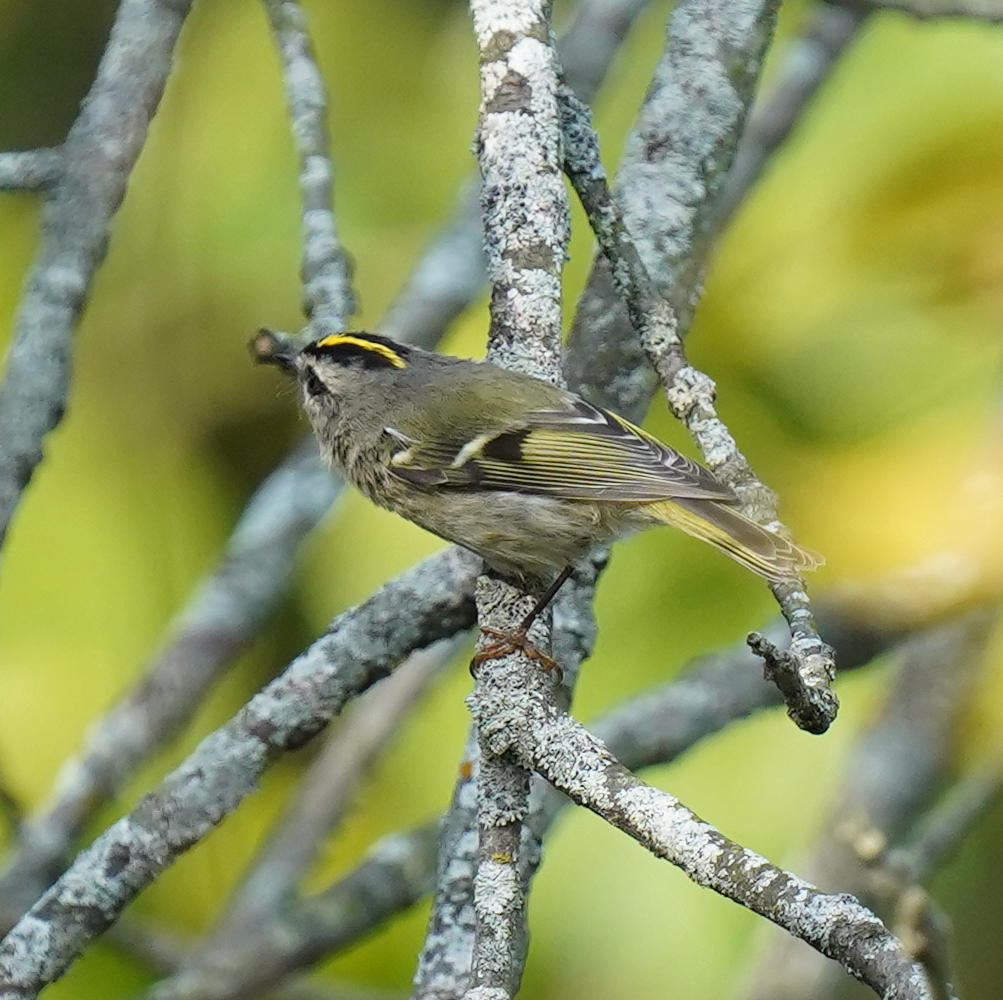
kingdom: Animalia
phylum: Chordata
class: Aves
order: Passeriformes
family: Regulidae
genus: Regulus
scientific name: Regulus satrapa
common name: Golden-crowned kinglet
